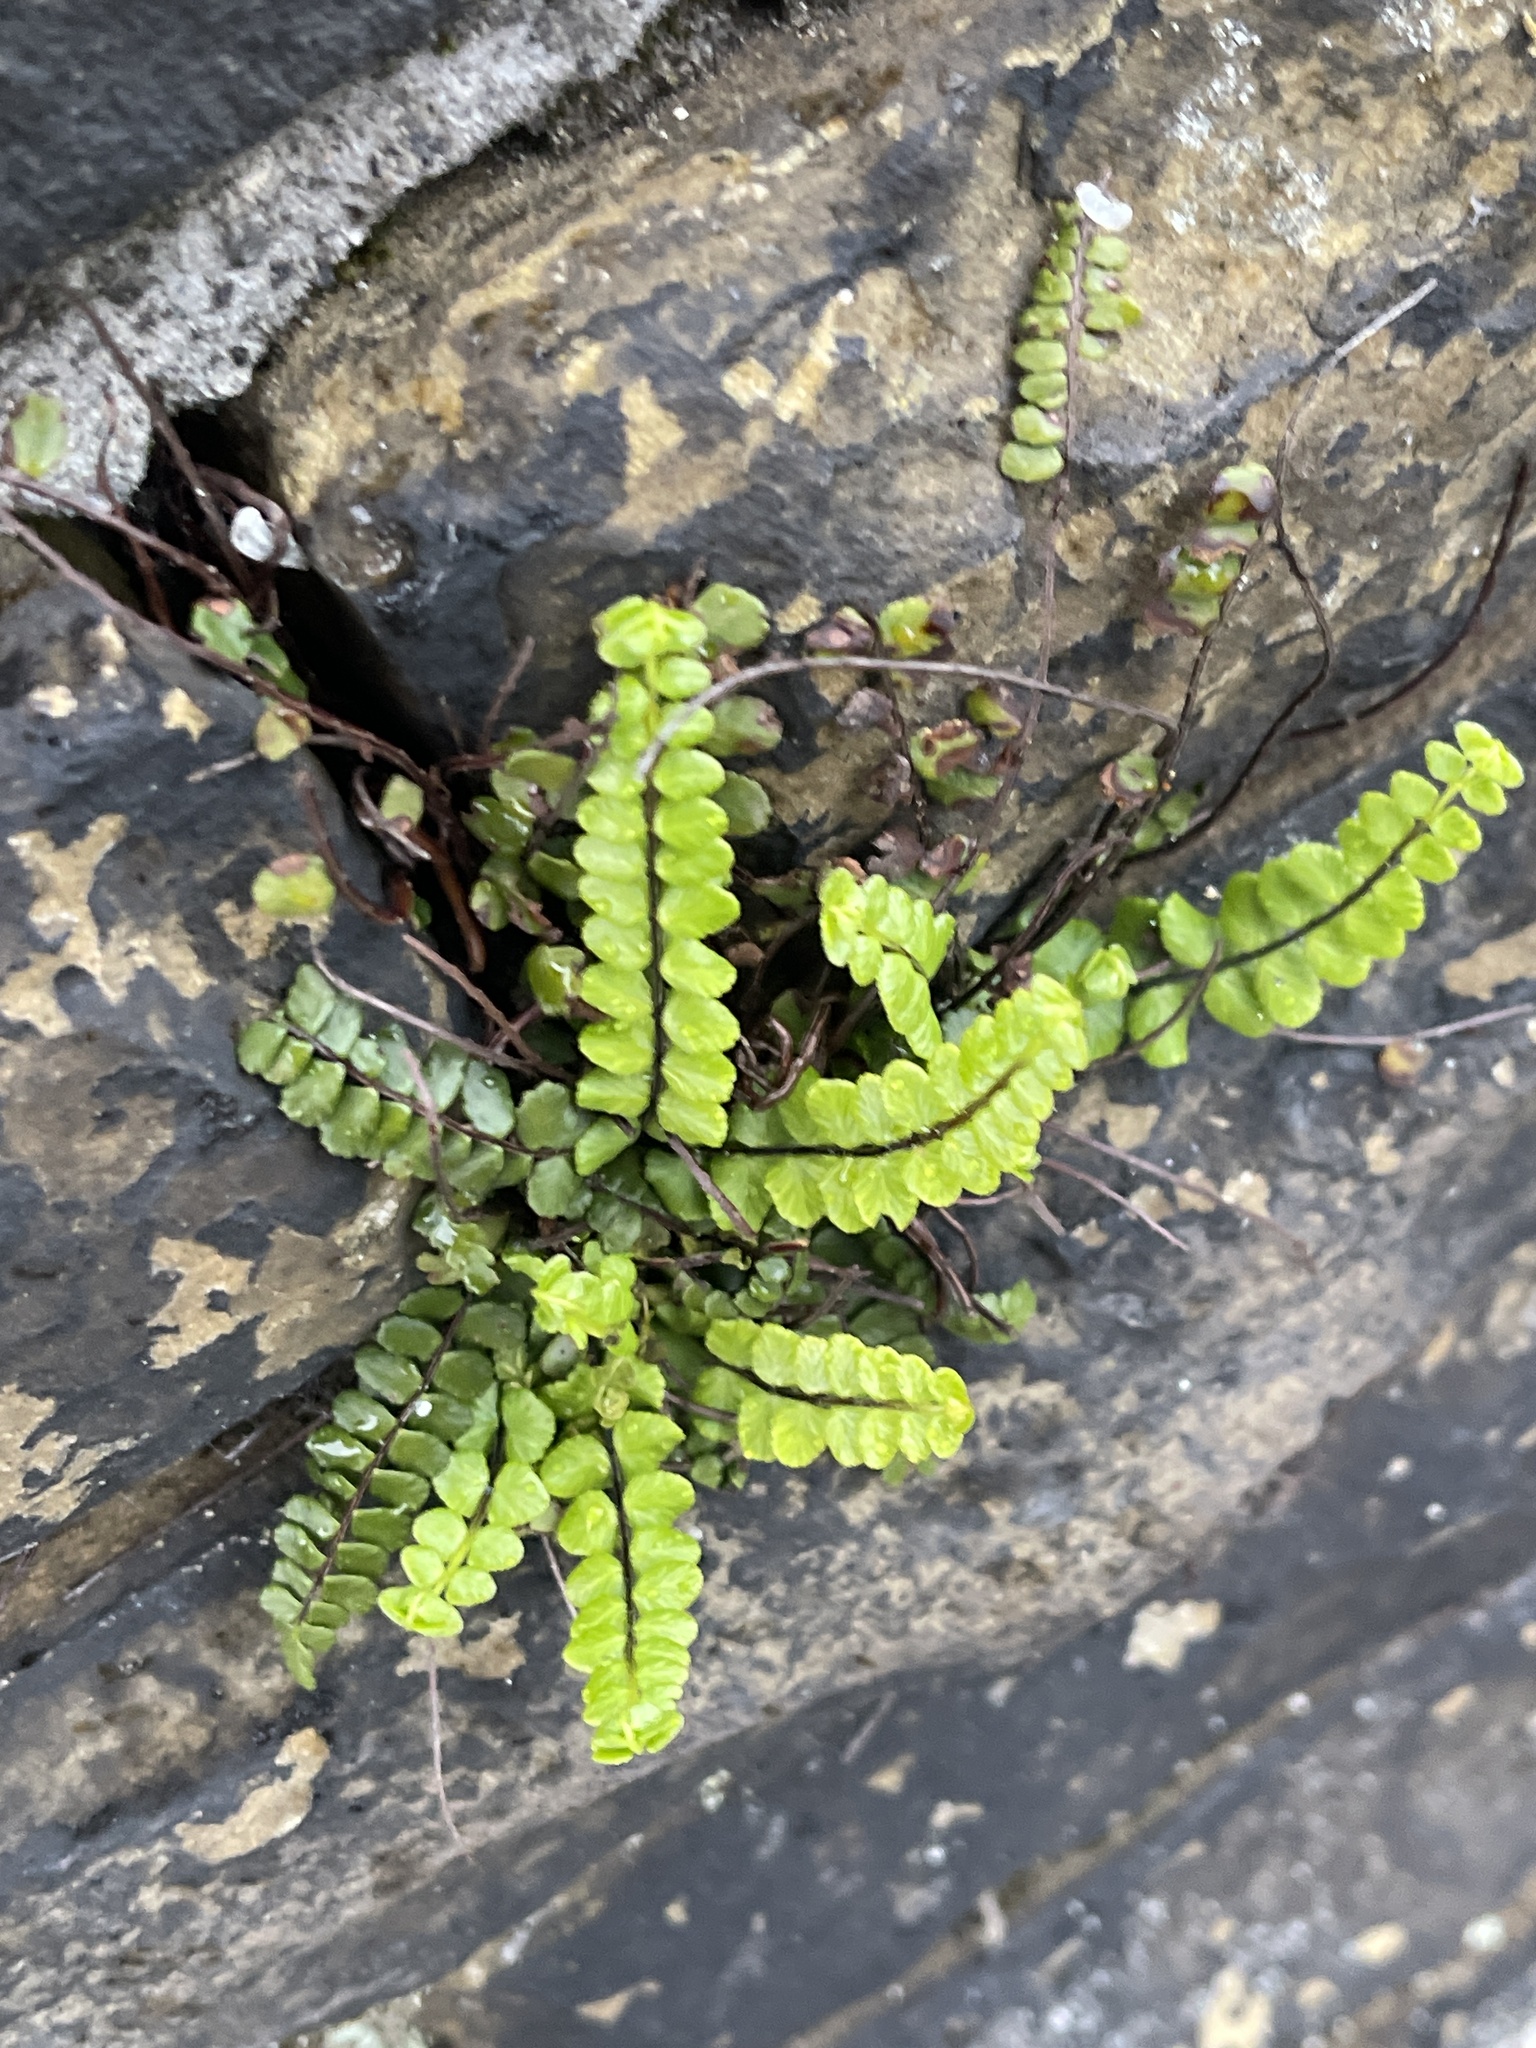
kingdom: Plantae
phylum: Tracheophyta
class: Polypodiopsida
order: Polypodiales
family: Aspleniaceae
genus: Asplenium
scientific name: Asplenium trichomanes
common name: Maidenhair spleenwort
